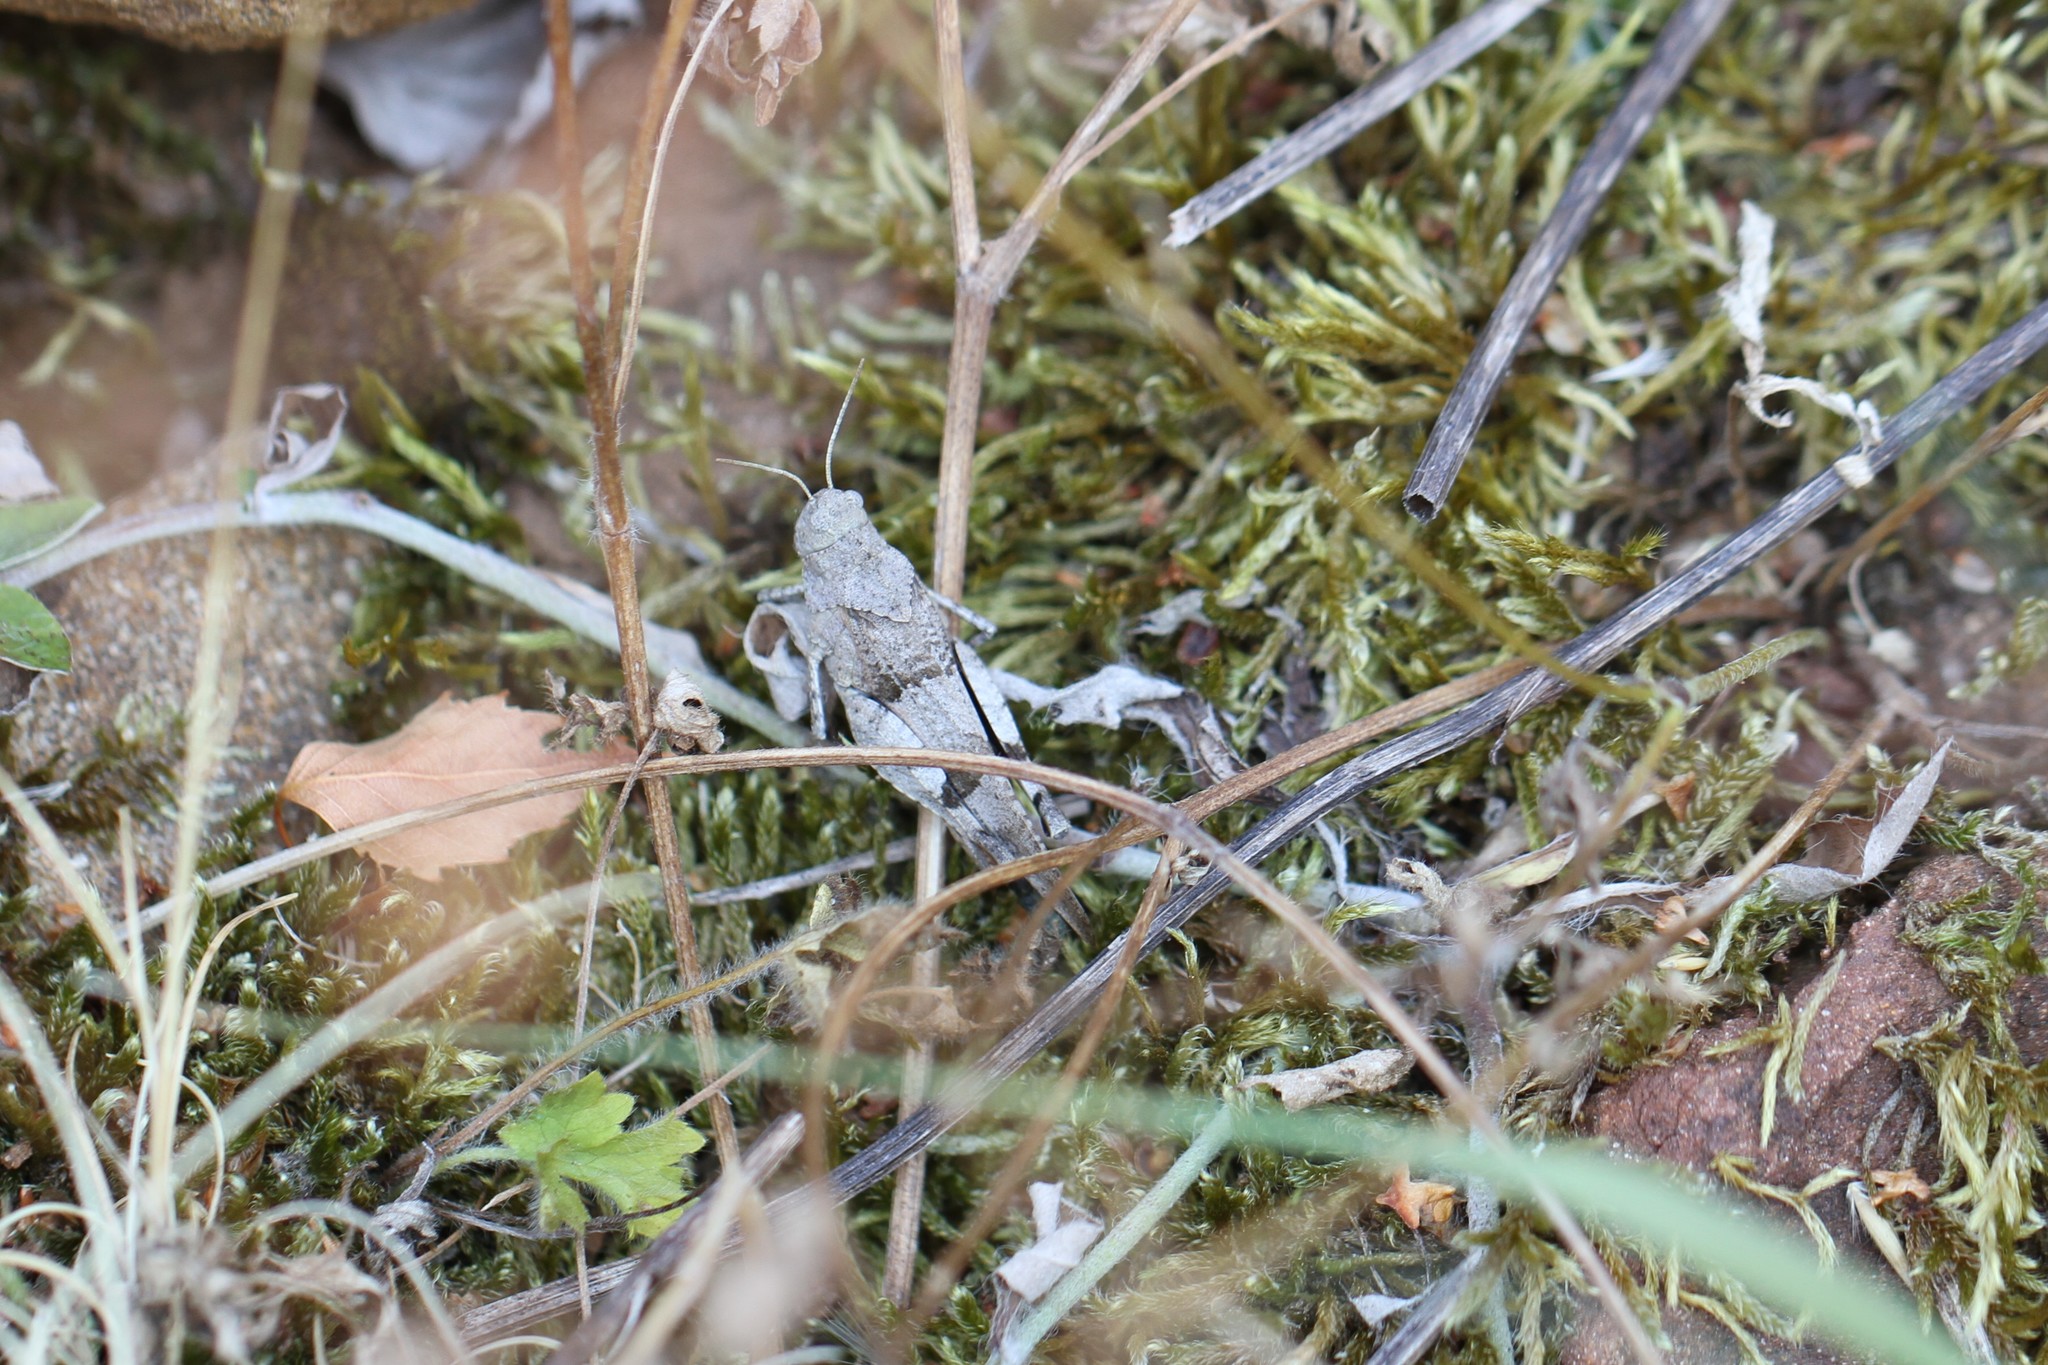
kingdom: Animalia
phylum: Arthropoda
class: Insecta
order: Orthoptera
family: Acrididae
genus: Oedipoda
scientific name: Oedipoda caerulescens
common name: Blue-winged grasshopper
